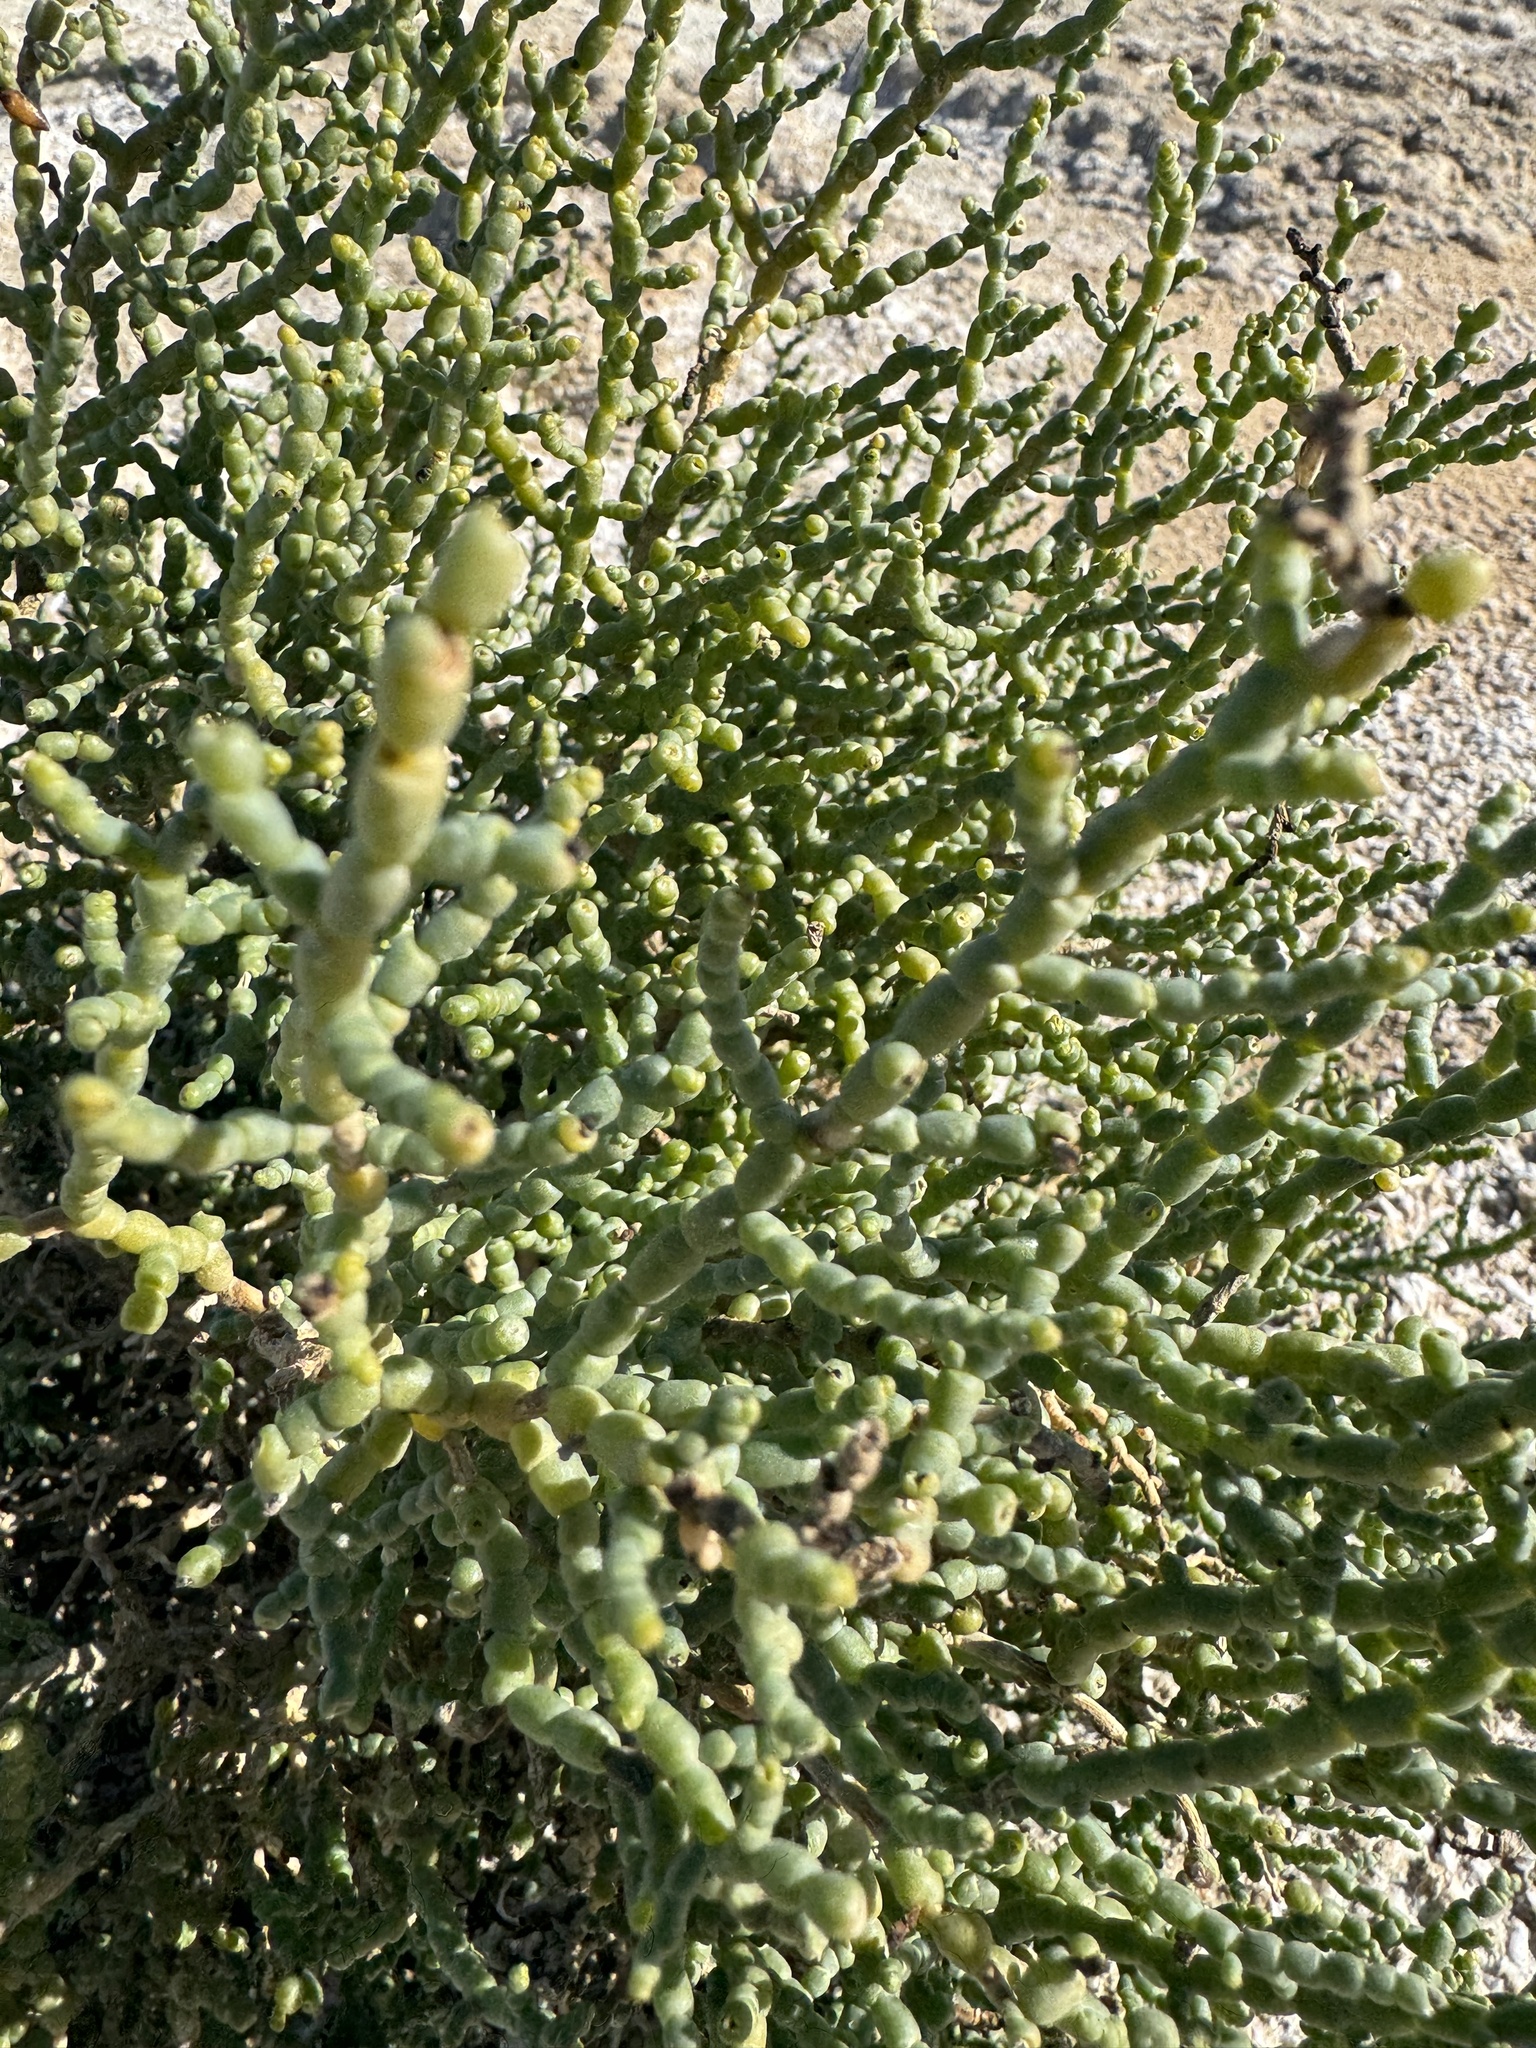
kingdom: Plantae
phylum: Tracheophyta
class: Magnoliopsida
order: Caryophyllales
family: Amaranthaceae
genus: Allenrolfea
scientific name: Allenrolfea occidentalis
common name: Iodine-bush
